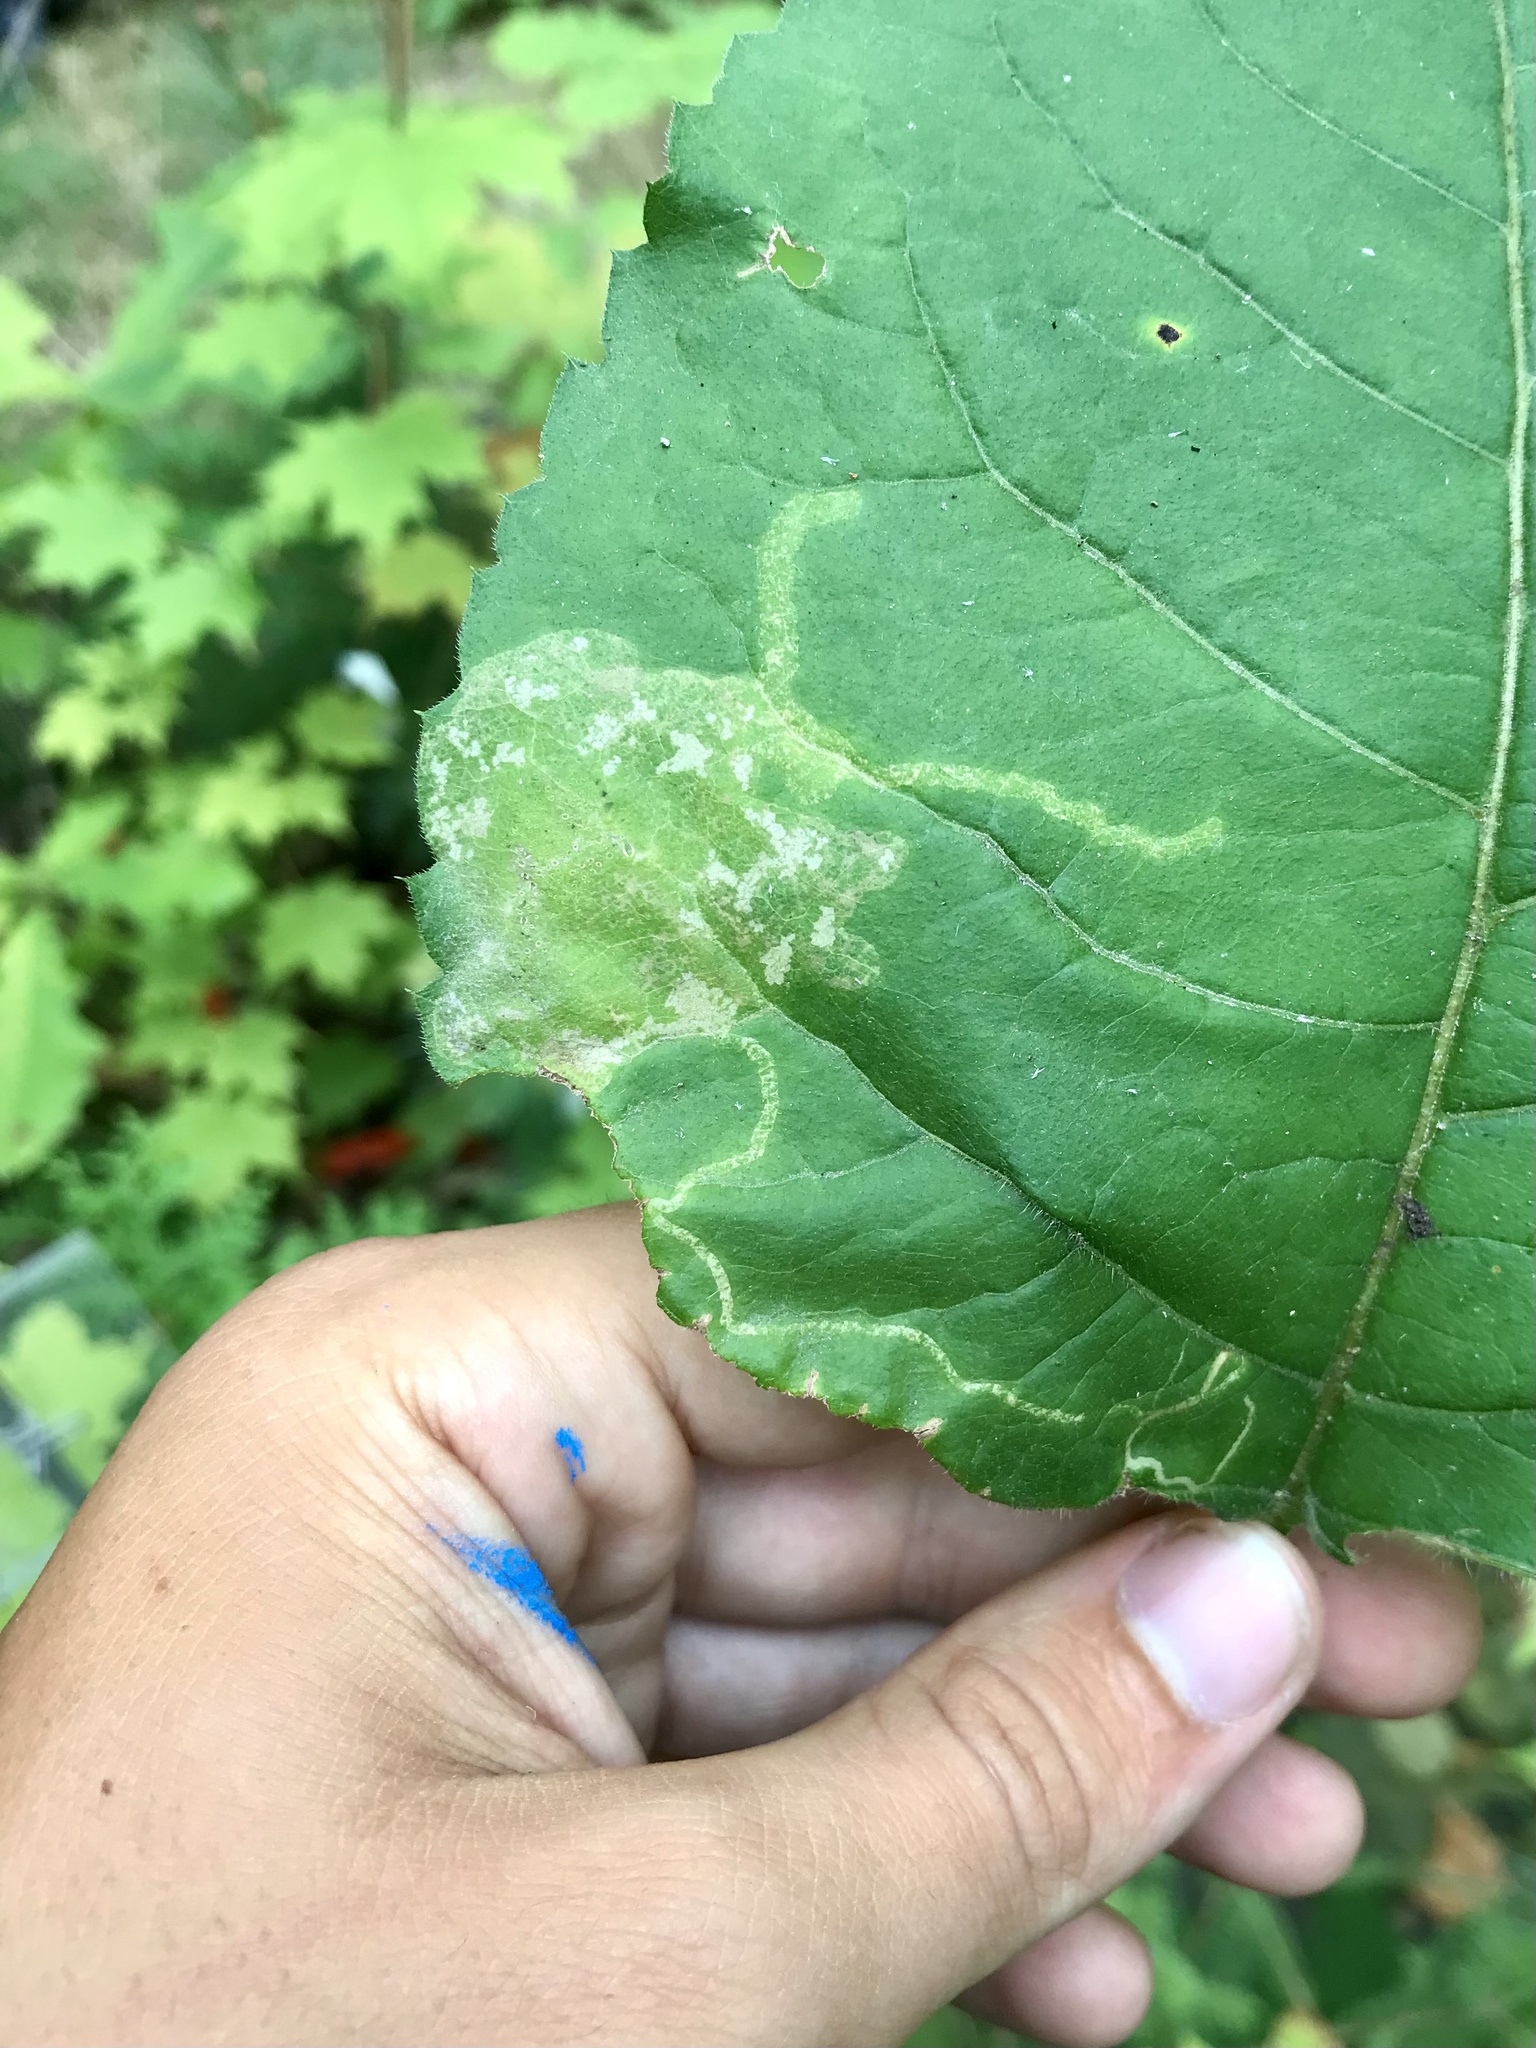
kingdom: Animalia
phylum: Arthropoda
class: Insecta
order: Lepidoptera
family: Gracillariidae
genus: Acrocercops
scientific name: Acrocercops astericola
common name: Aster tentiform blotchminer
